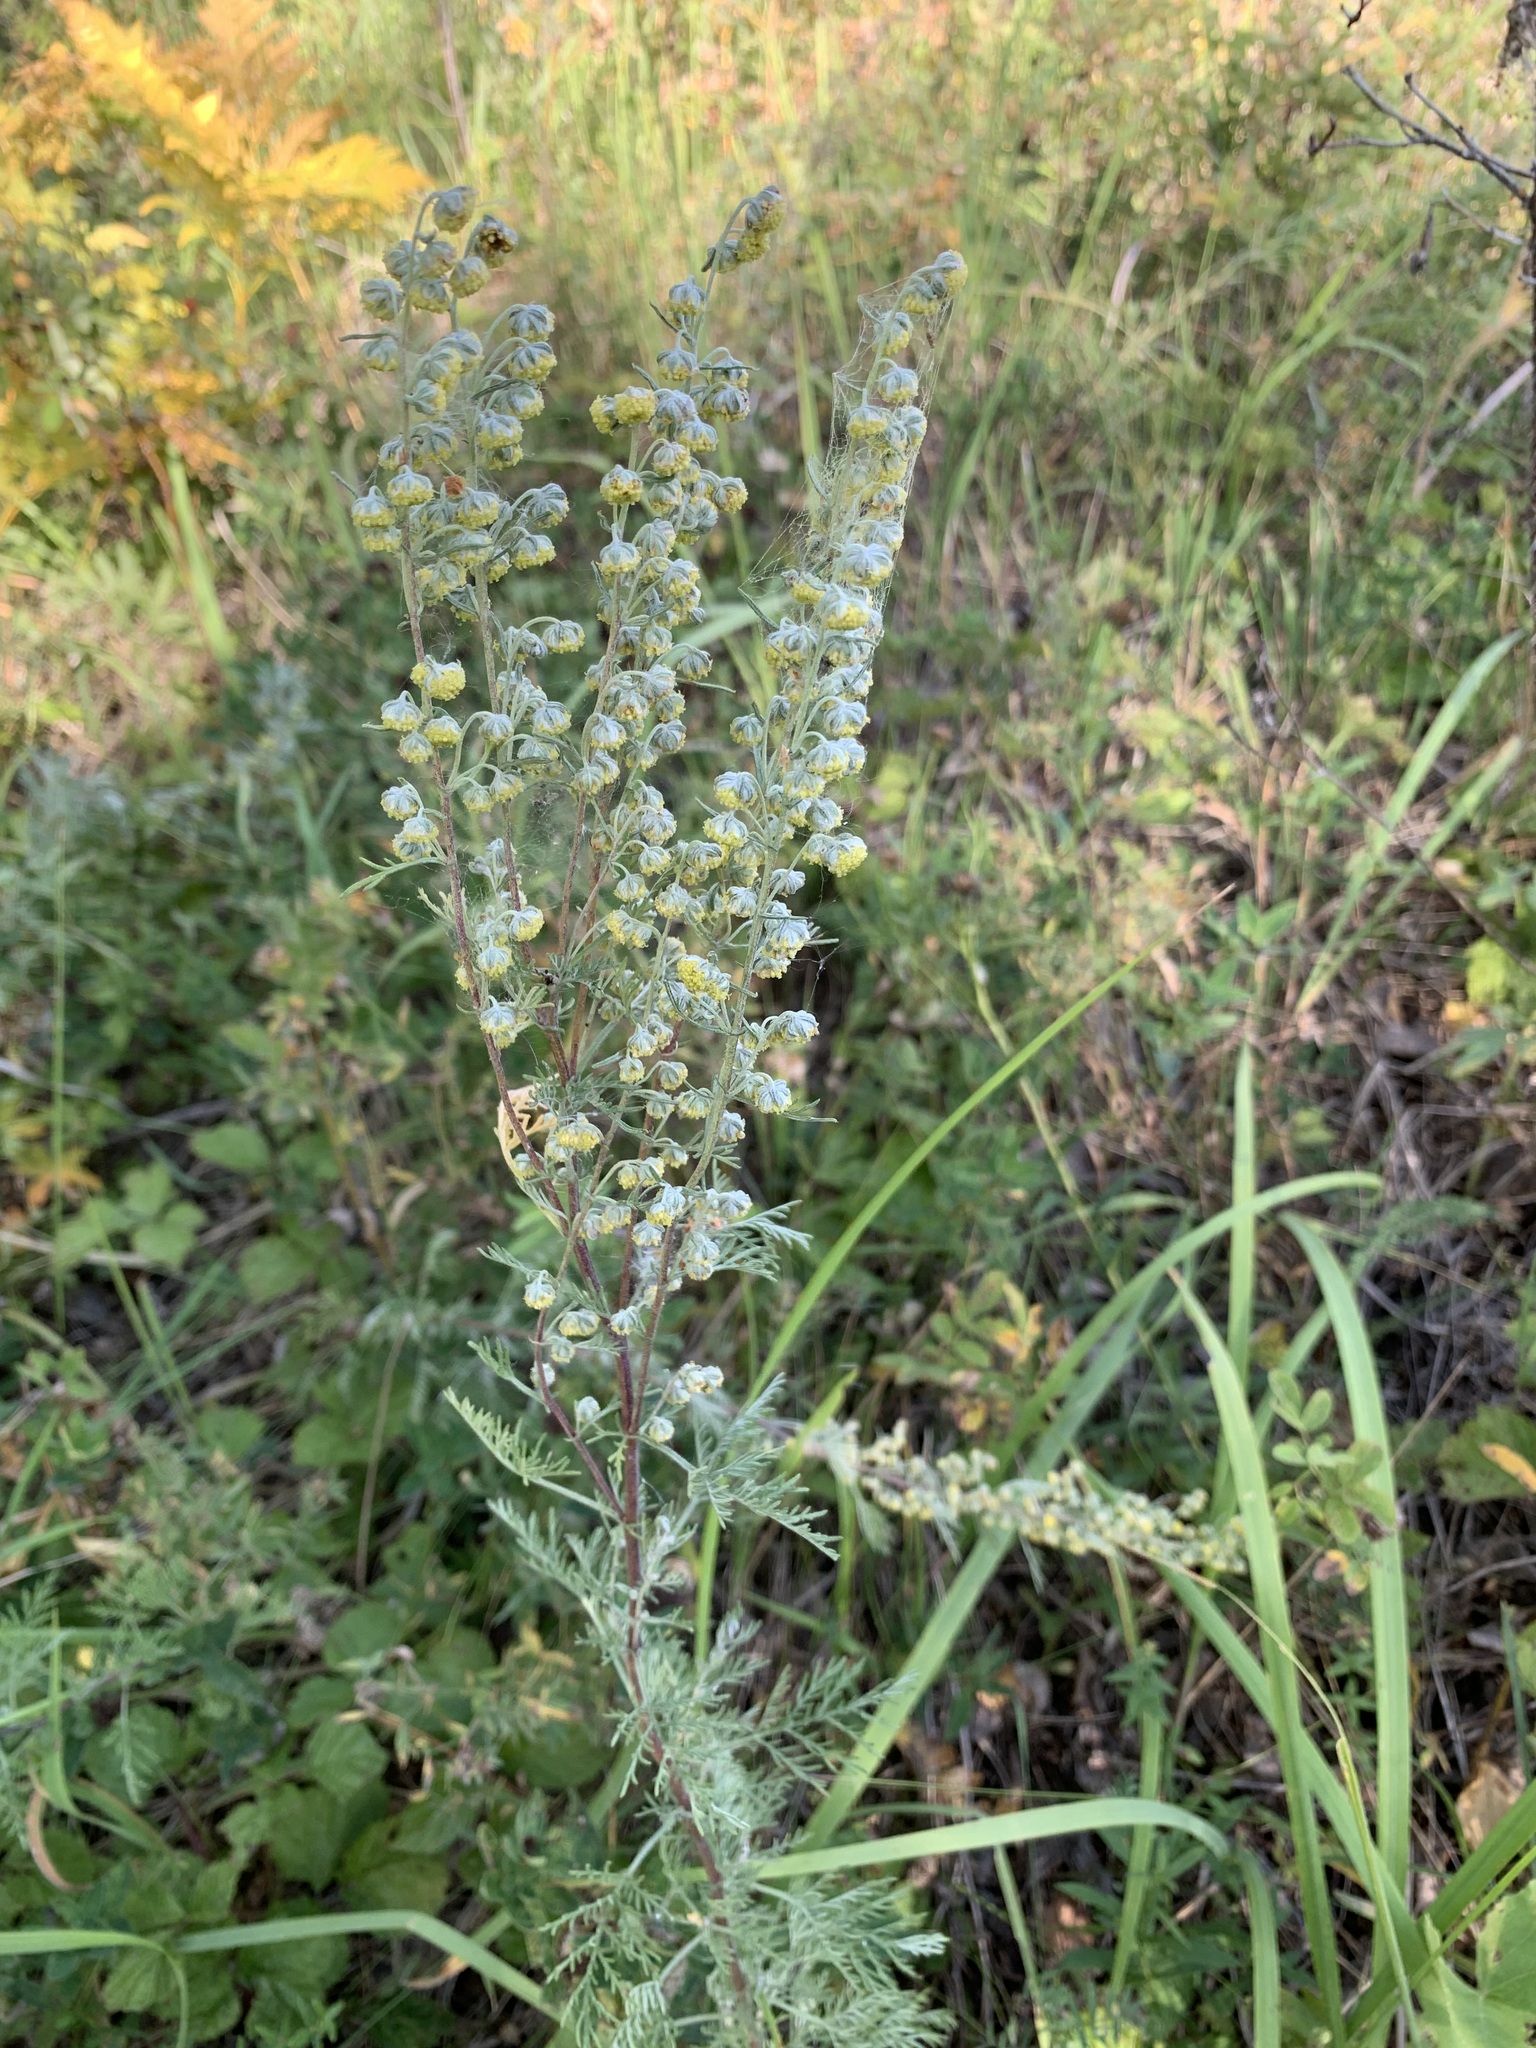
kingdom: Plantae
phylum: Tracheophyta
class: Magnoliopsida
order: Asterales
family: Asteraceae
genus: Artemisia
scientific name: Artemisia pontica
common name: Roman wormwood
